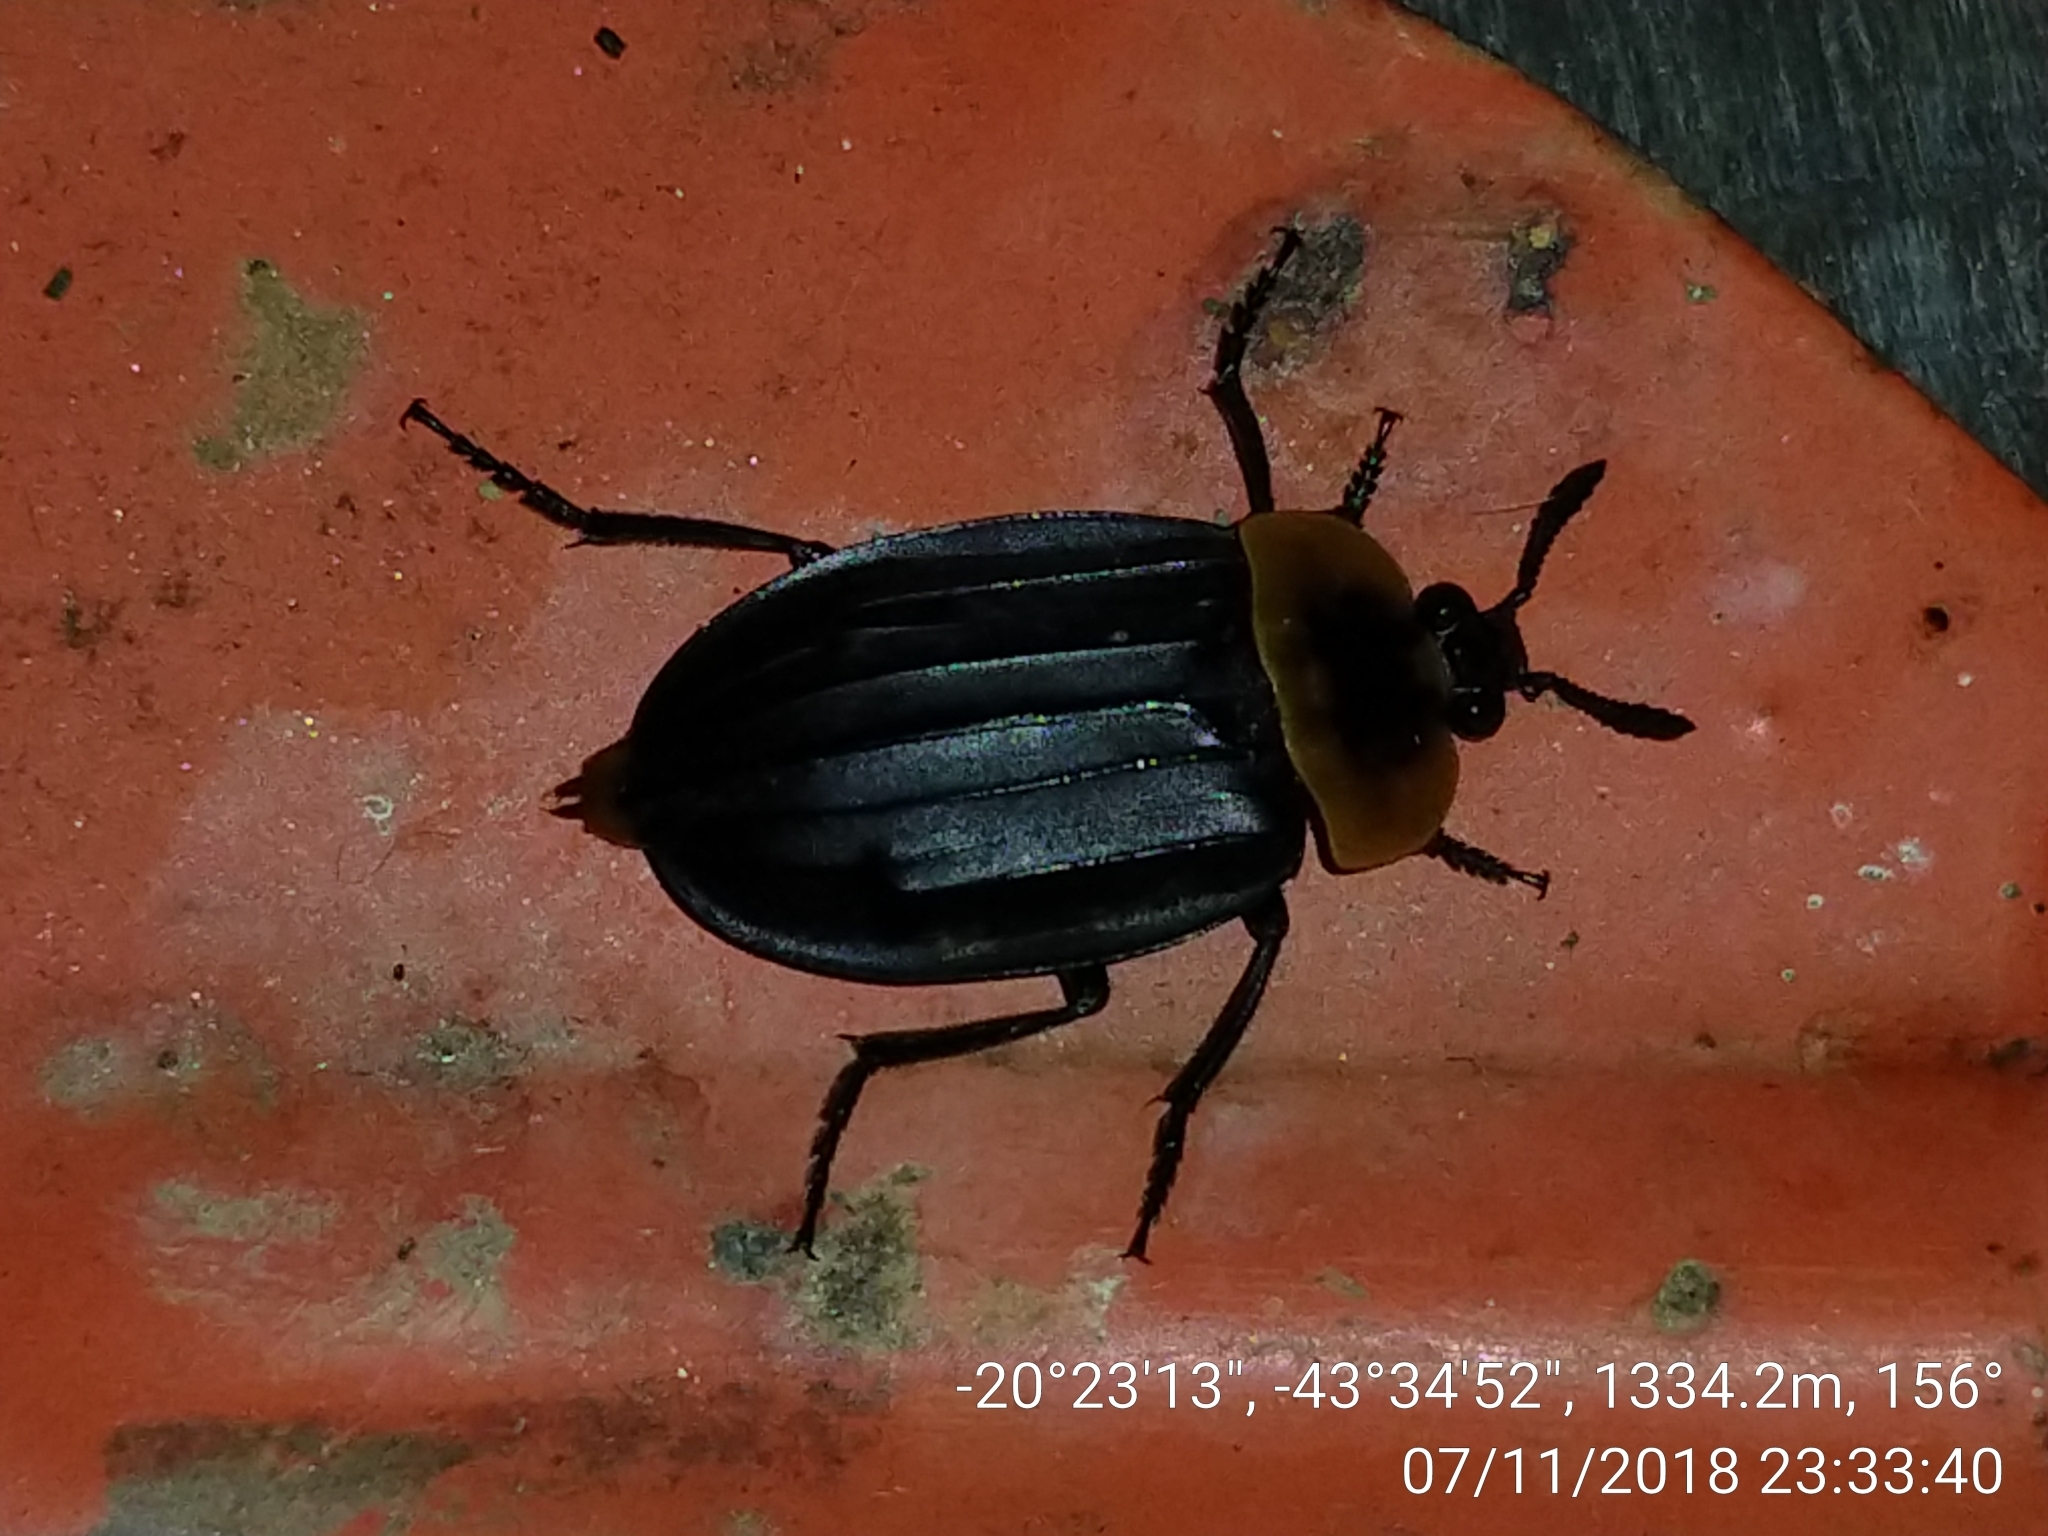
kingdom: Animalia
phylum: Arthropoda
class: Insecta
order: Coleoptera
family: Staphylinidae
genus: Oxelytrum
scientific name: Oxelytrum discicolle
